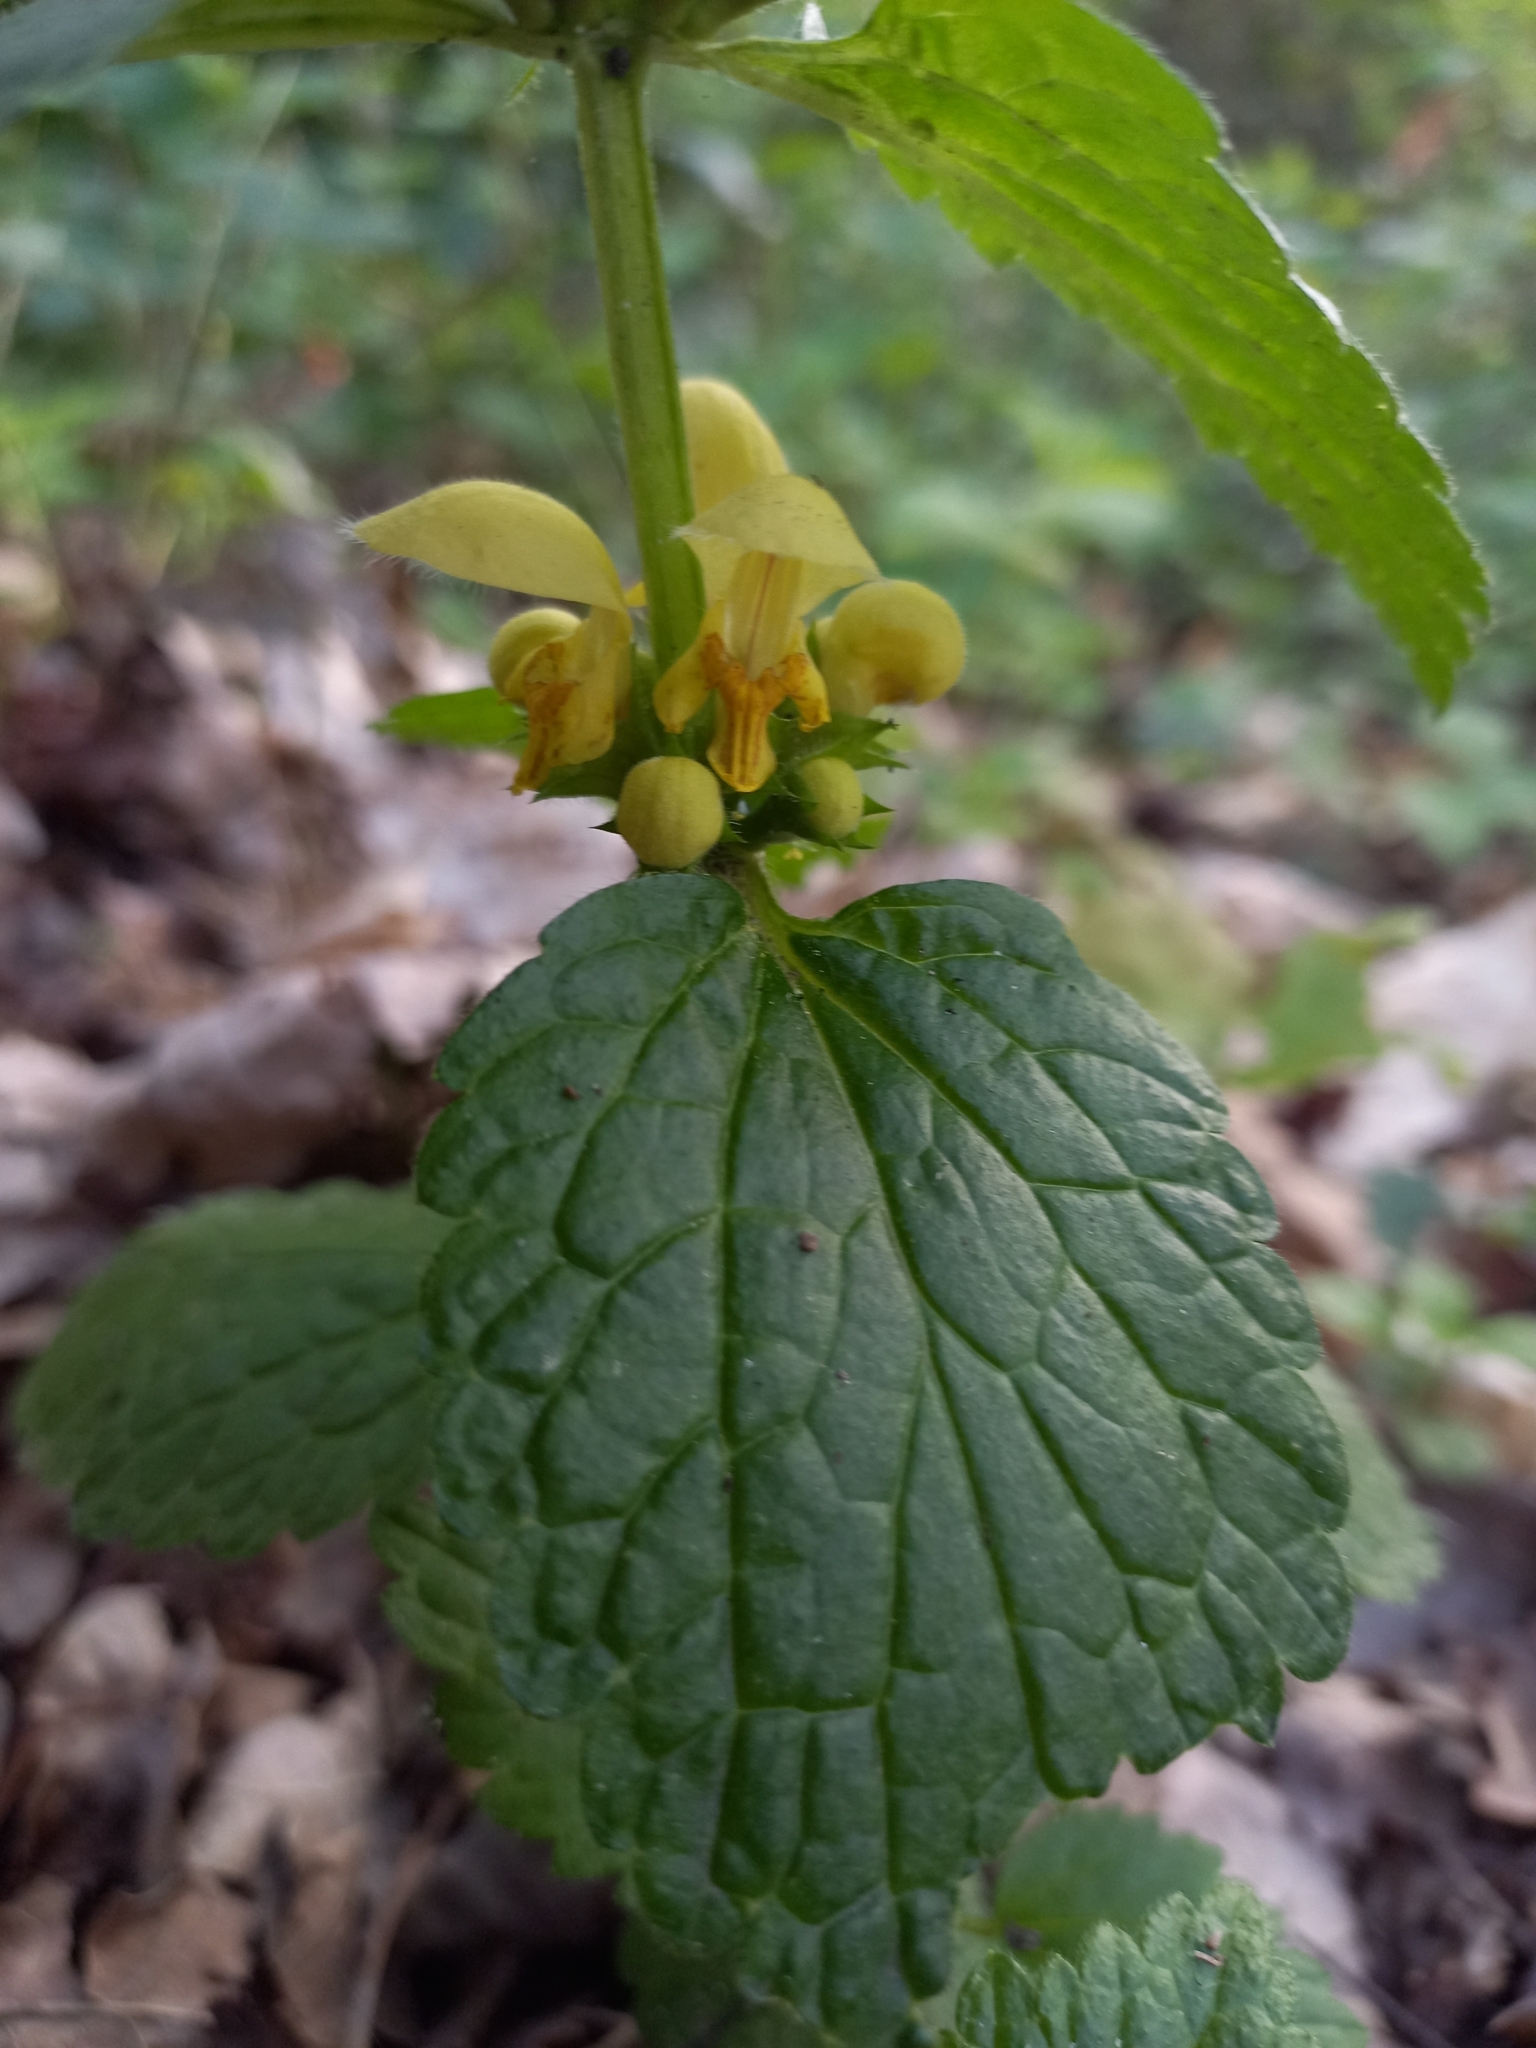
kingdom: Plantae
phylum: Tracheophyta
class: Magnoliopsida
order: Lamiales
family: Lamiaceae
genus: Lamium
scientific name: Lamium galeobdolon
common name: Yellow archangel
